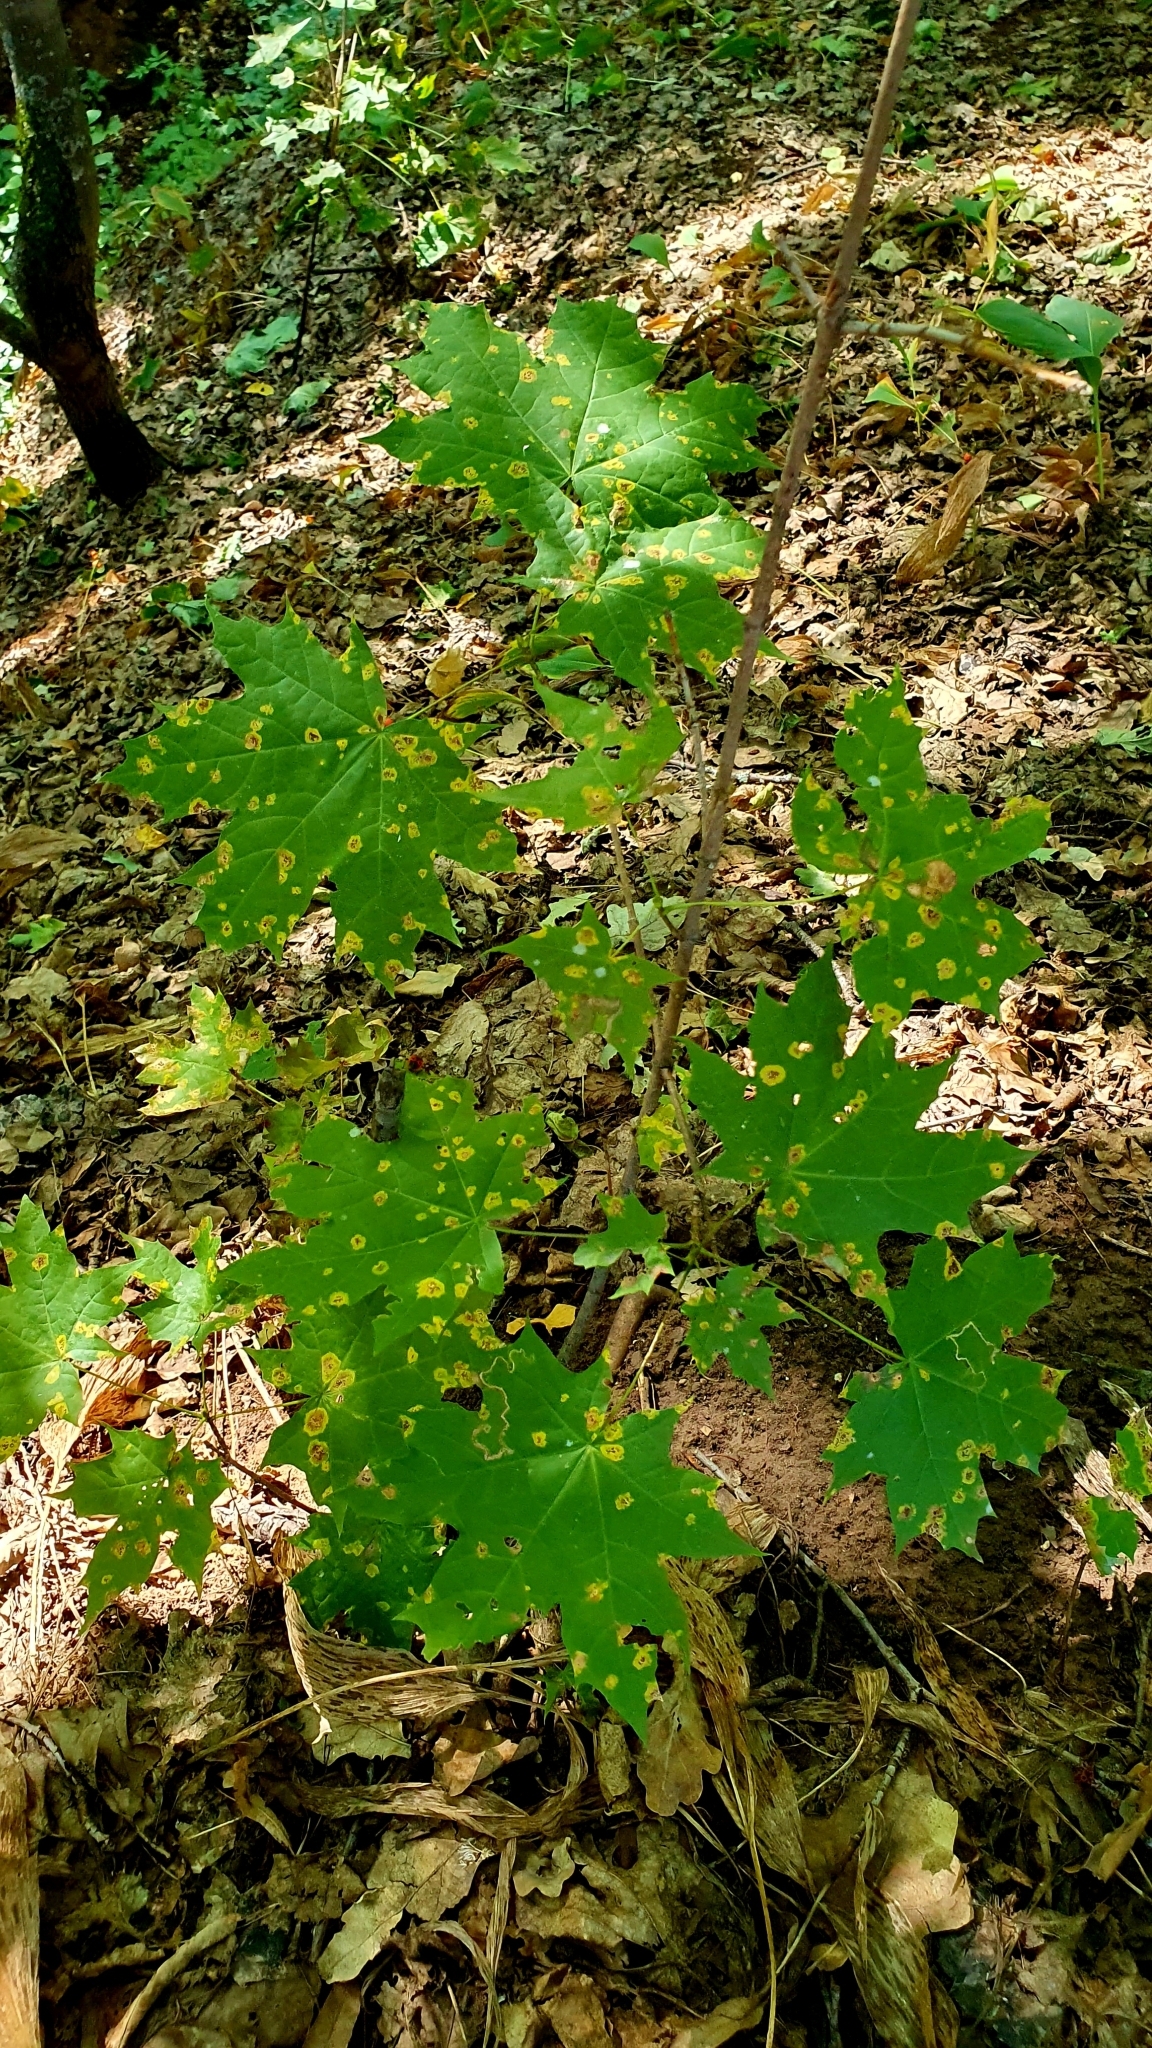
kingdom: Plantae
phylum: Tracheophyta
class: Magnoliopsida
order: Sapindales
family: Sapindaceae
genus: Acer
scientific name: Acer platanoides
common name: Norway maple
